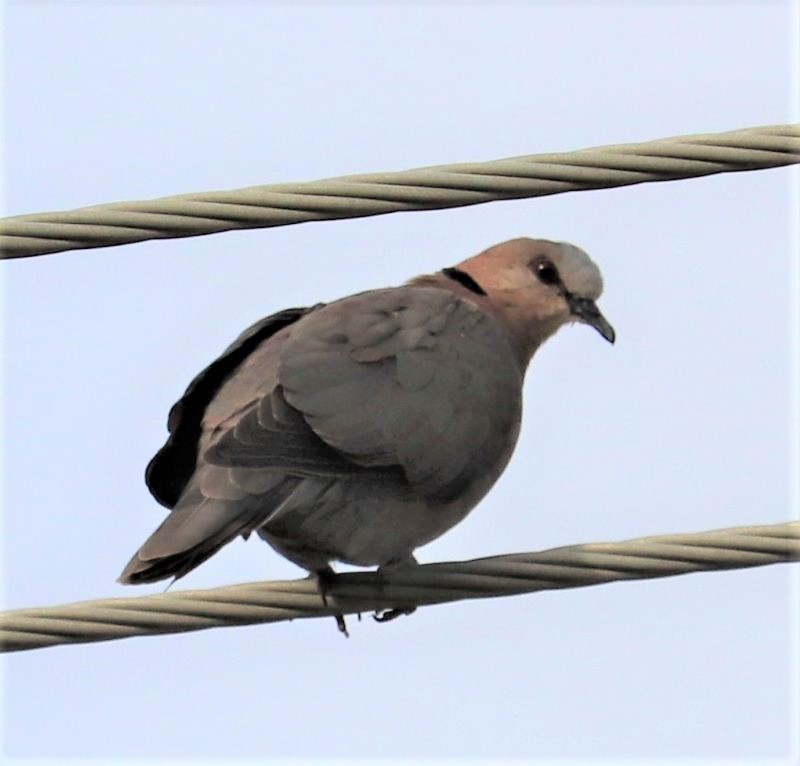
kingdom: Animalia
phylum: Chordata
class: Aves
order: Columbiformes
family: Columbidae
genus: Streptopelia
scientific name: Streptopelia semitorquata
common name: Red-eyed dove
